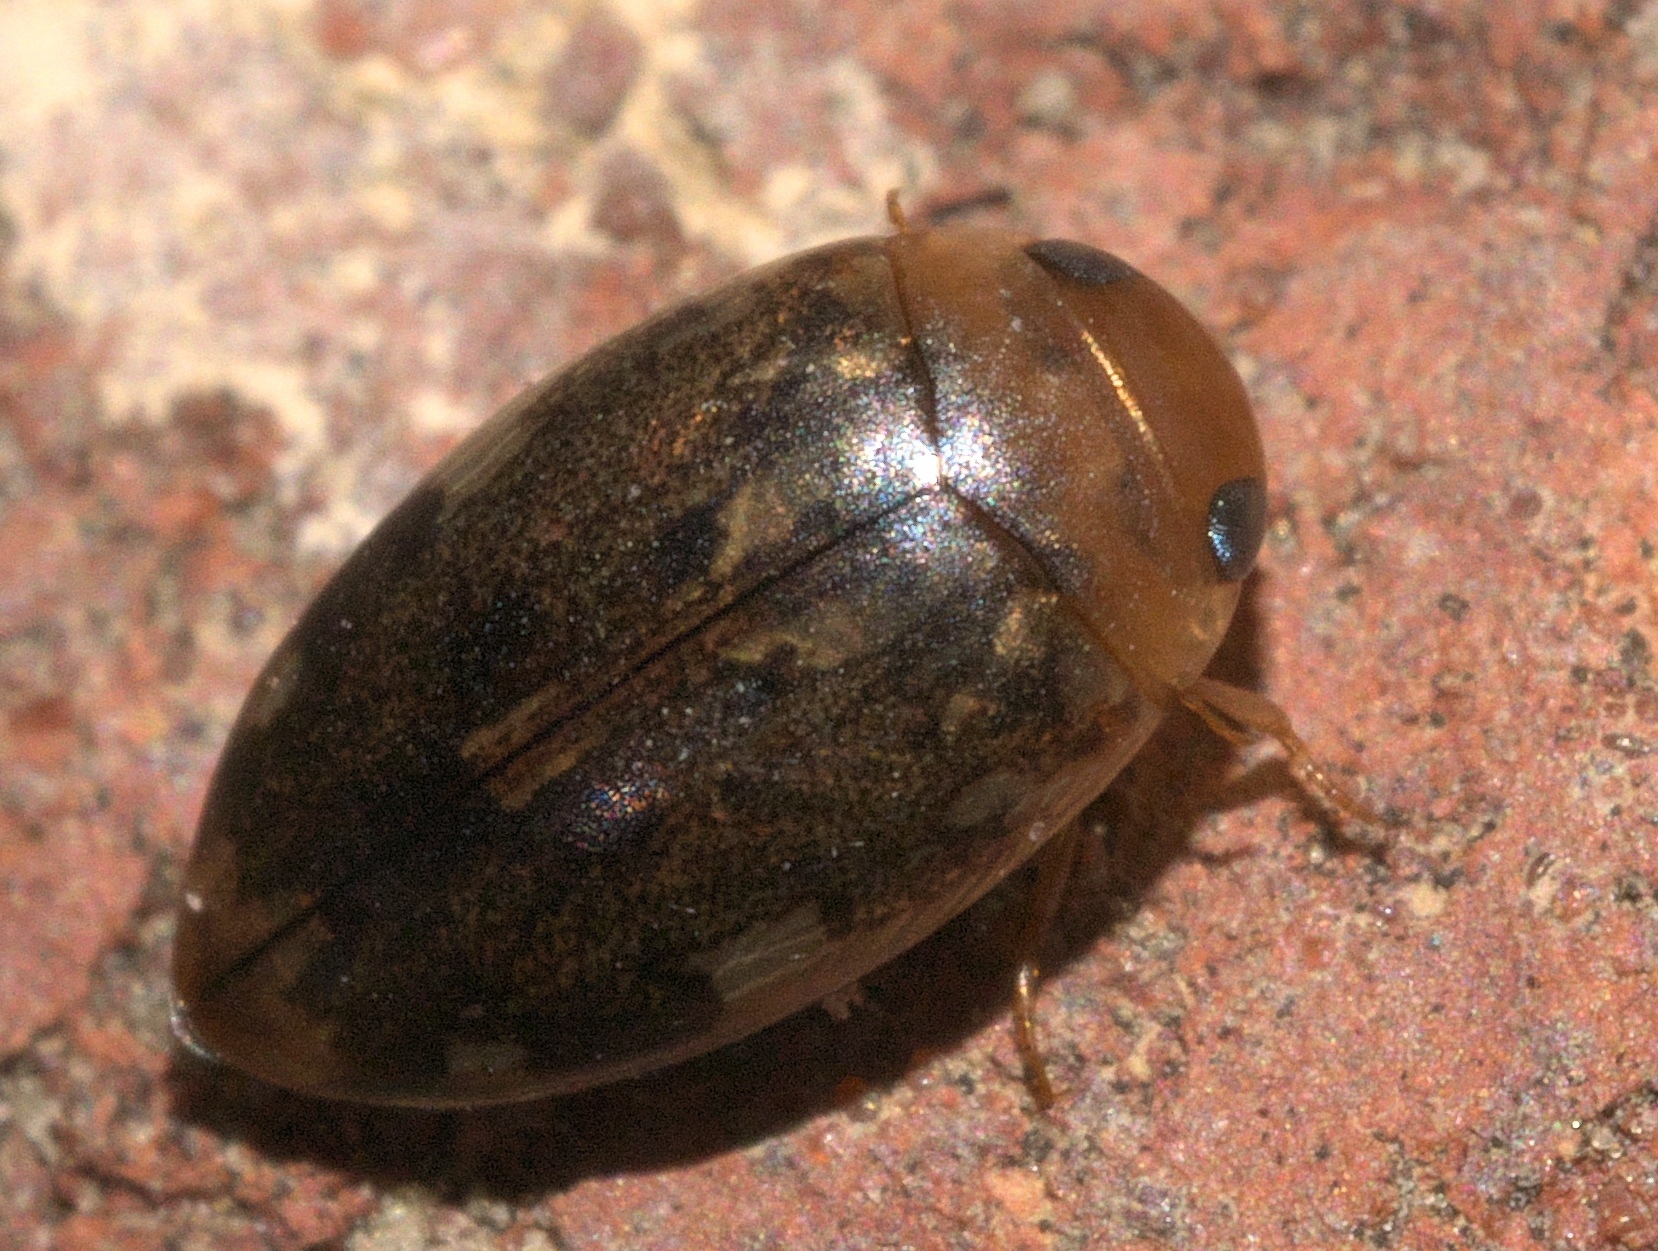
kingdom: Animalia
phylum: Arthropoda
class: Insecta
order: Coleoptera
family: Dytiscidae
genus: Laccophilus
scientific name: Laccophilus proximus
